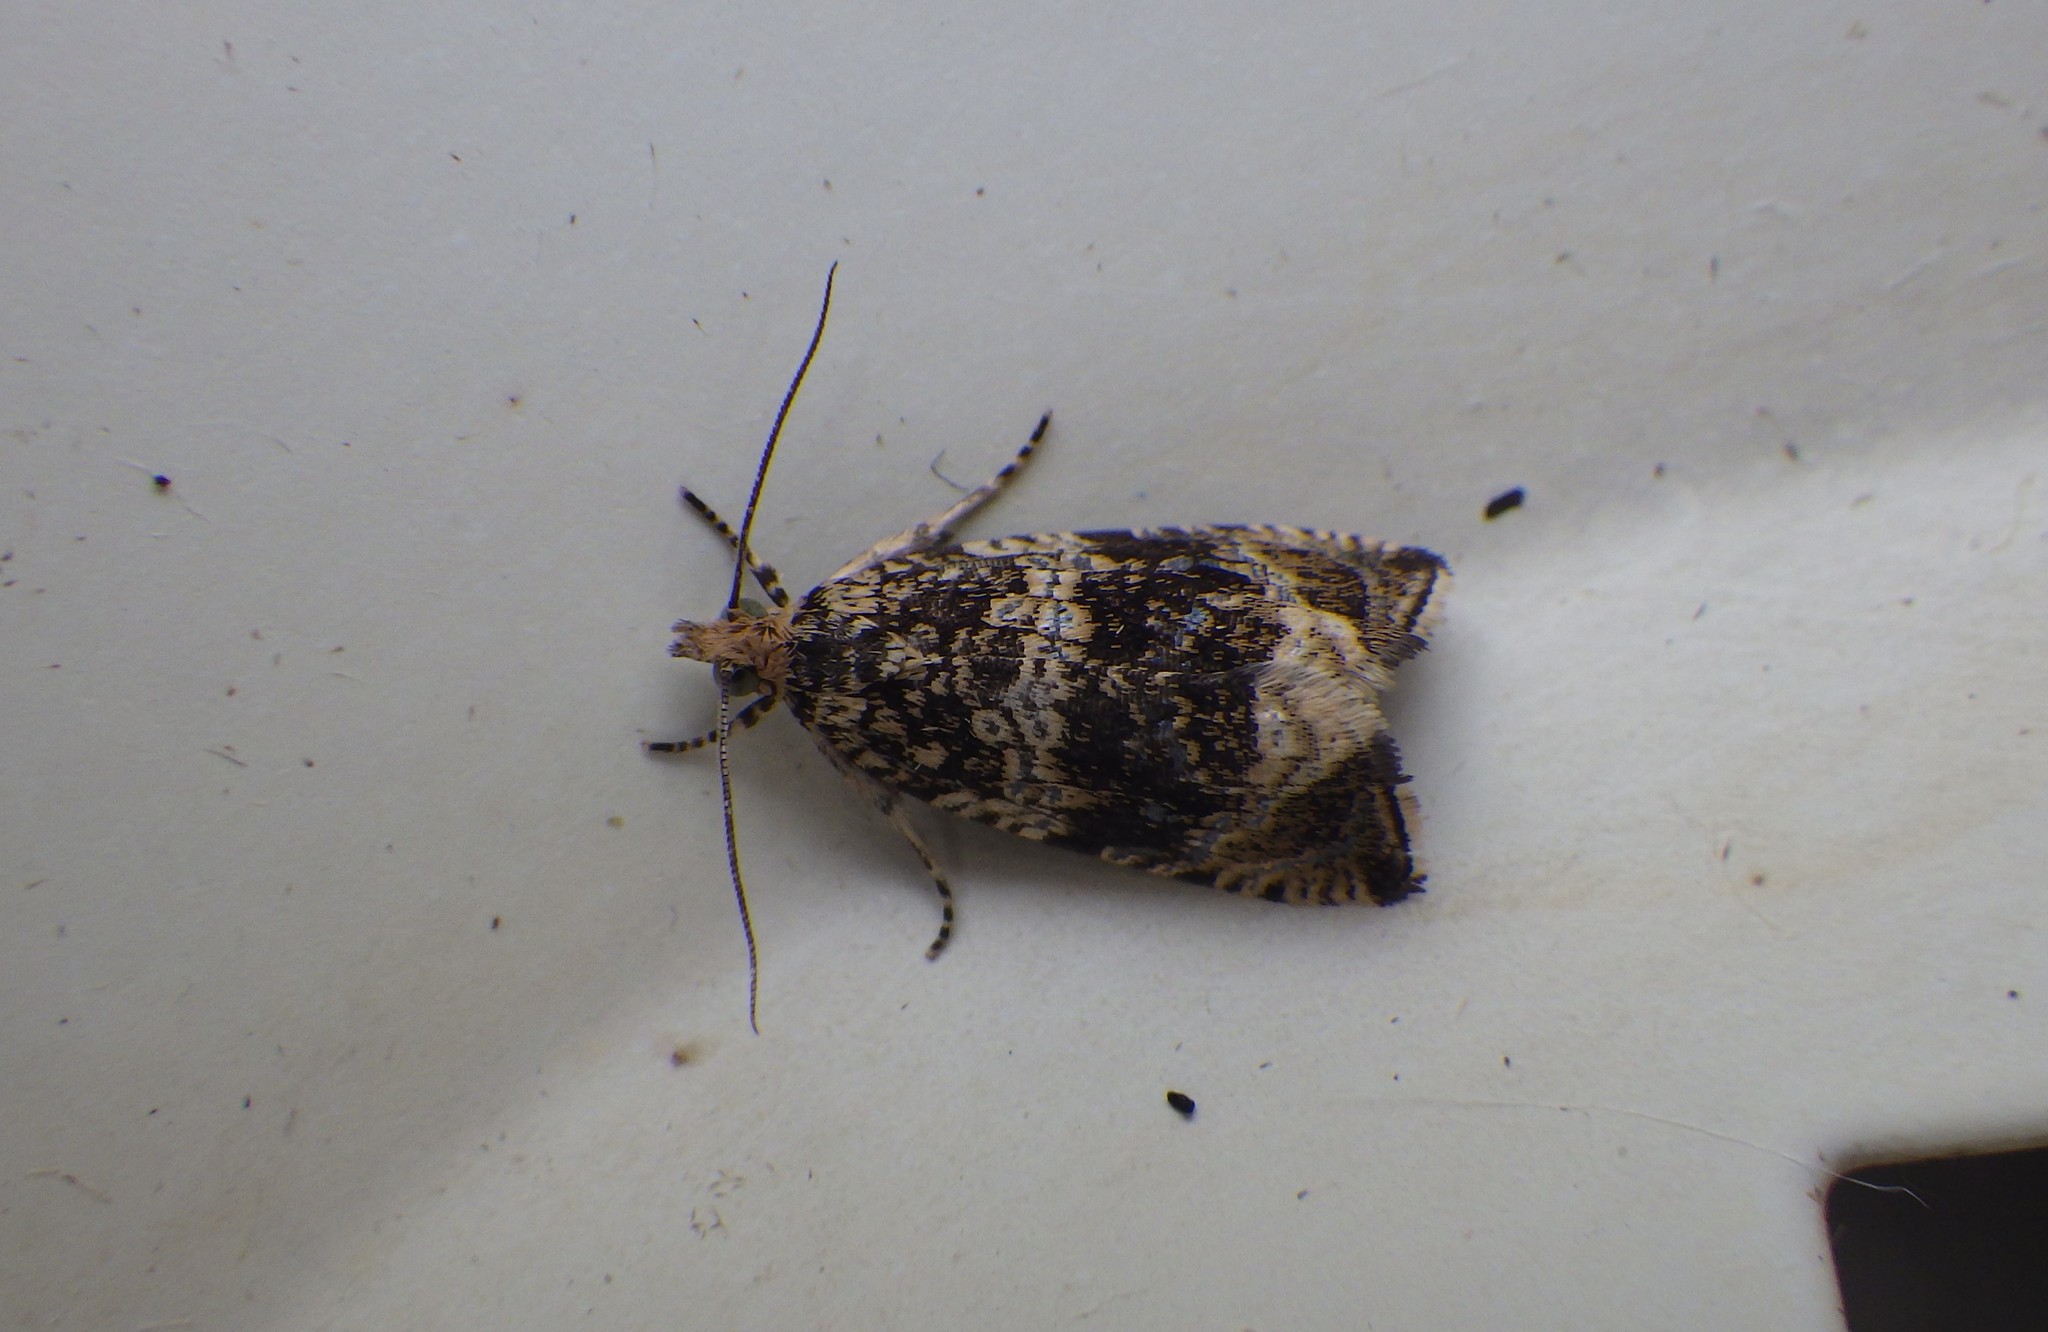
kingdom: Animalia
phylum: Arthropoda
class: Insecta
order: Lepidoptera
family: Tortricidae
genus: Syricoris
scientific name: Syricoris lacunana
